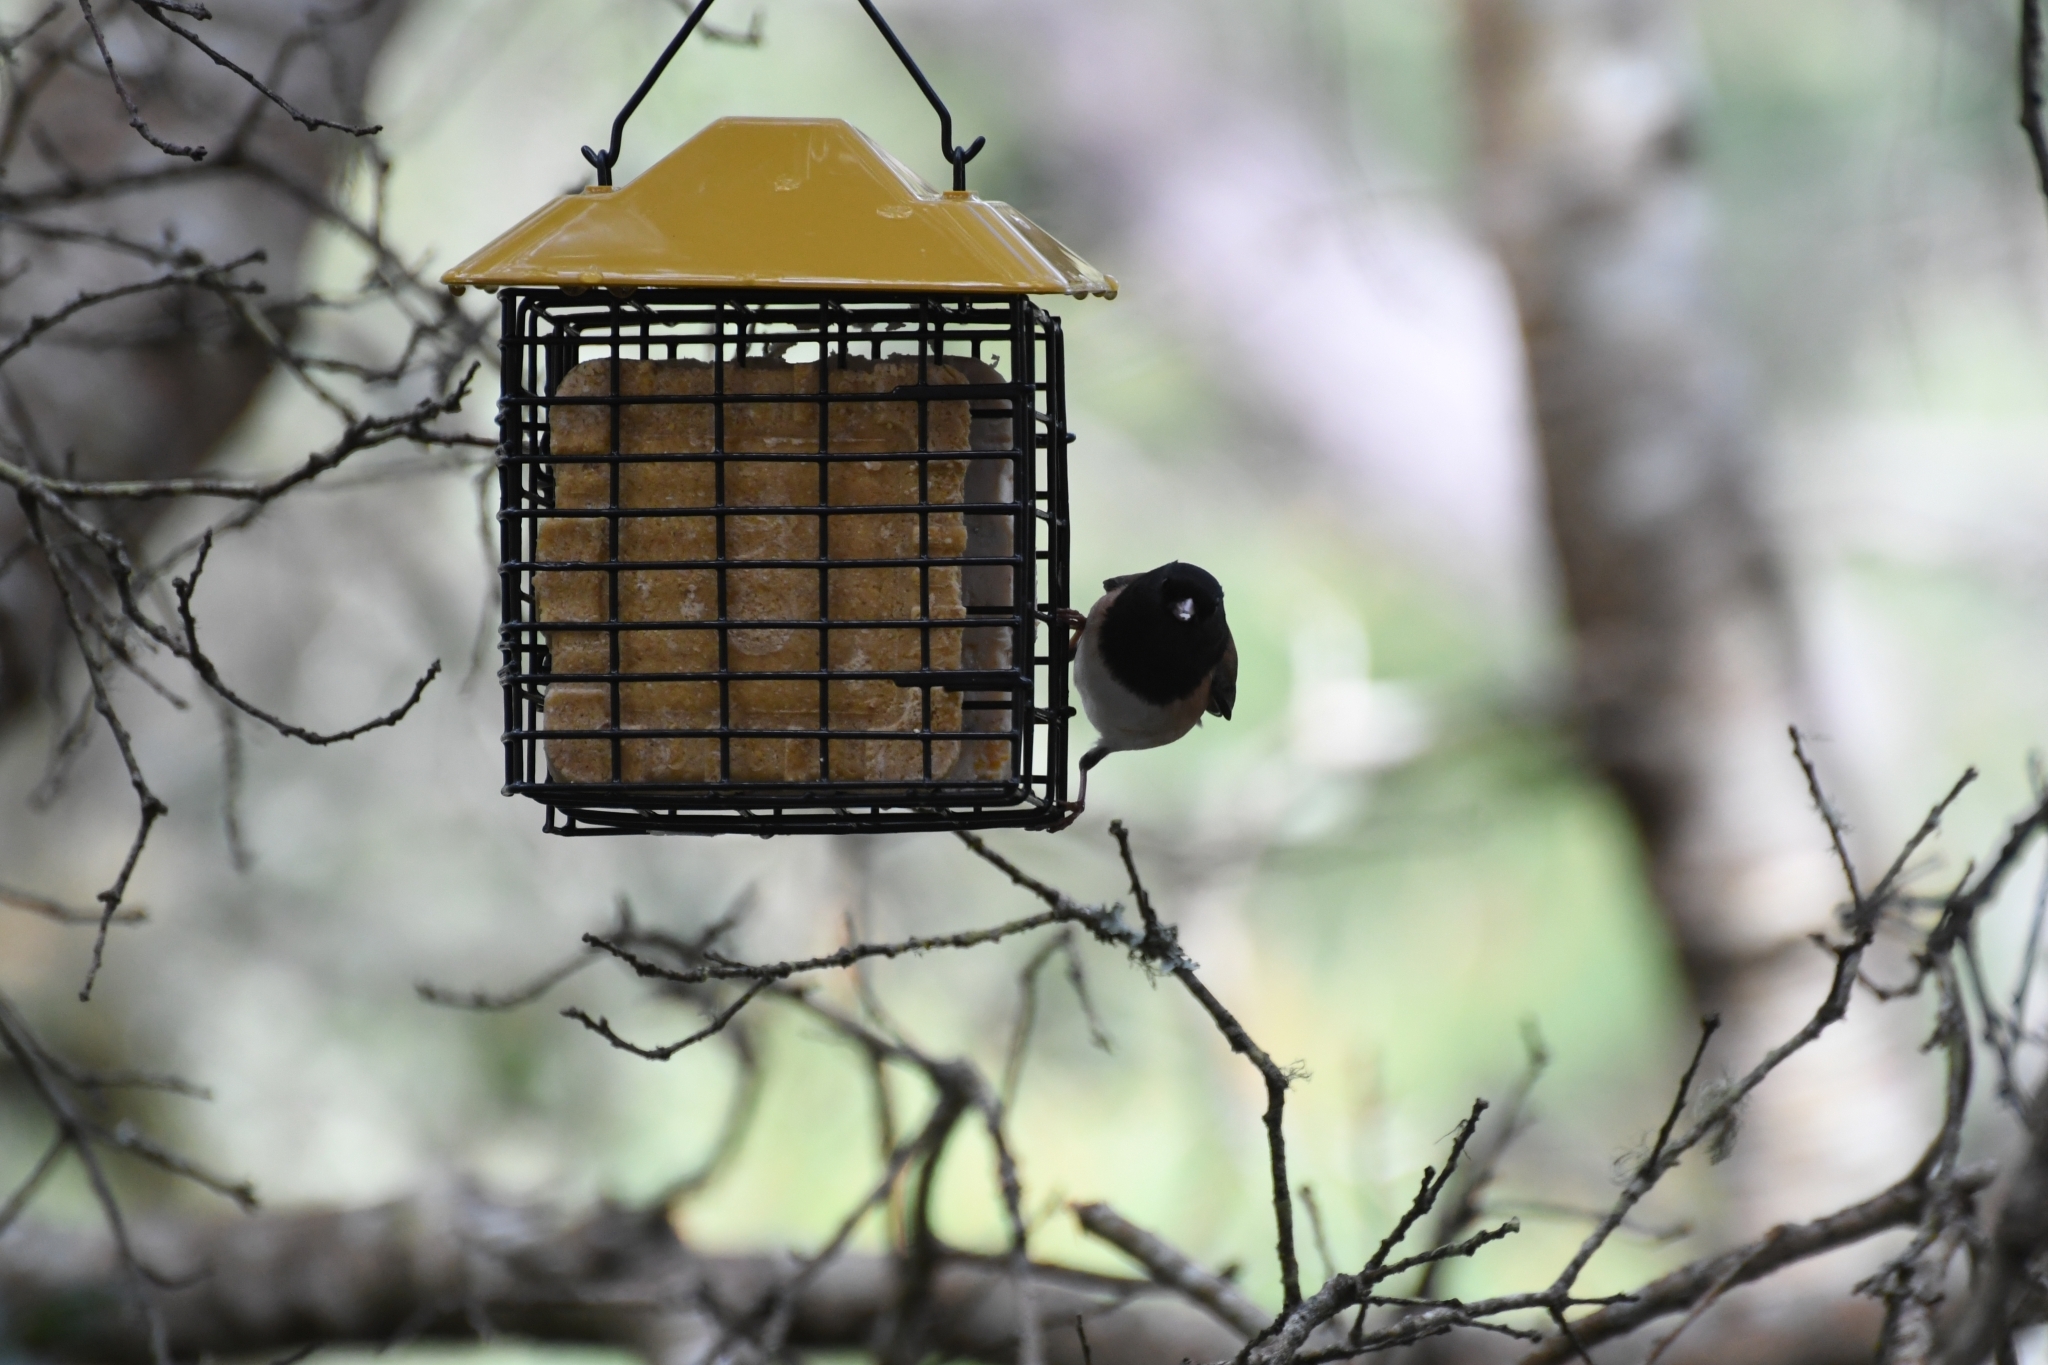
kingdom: Animalia
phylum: Chordata
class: Aves
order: Passeriformes
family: Passerellidae
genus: Junco
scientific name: Junco hyemalis
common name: Dark-eyed junco
